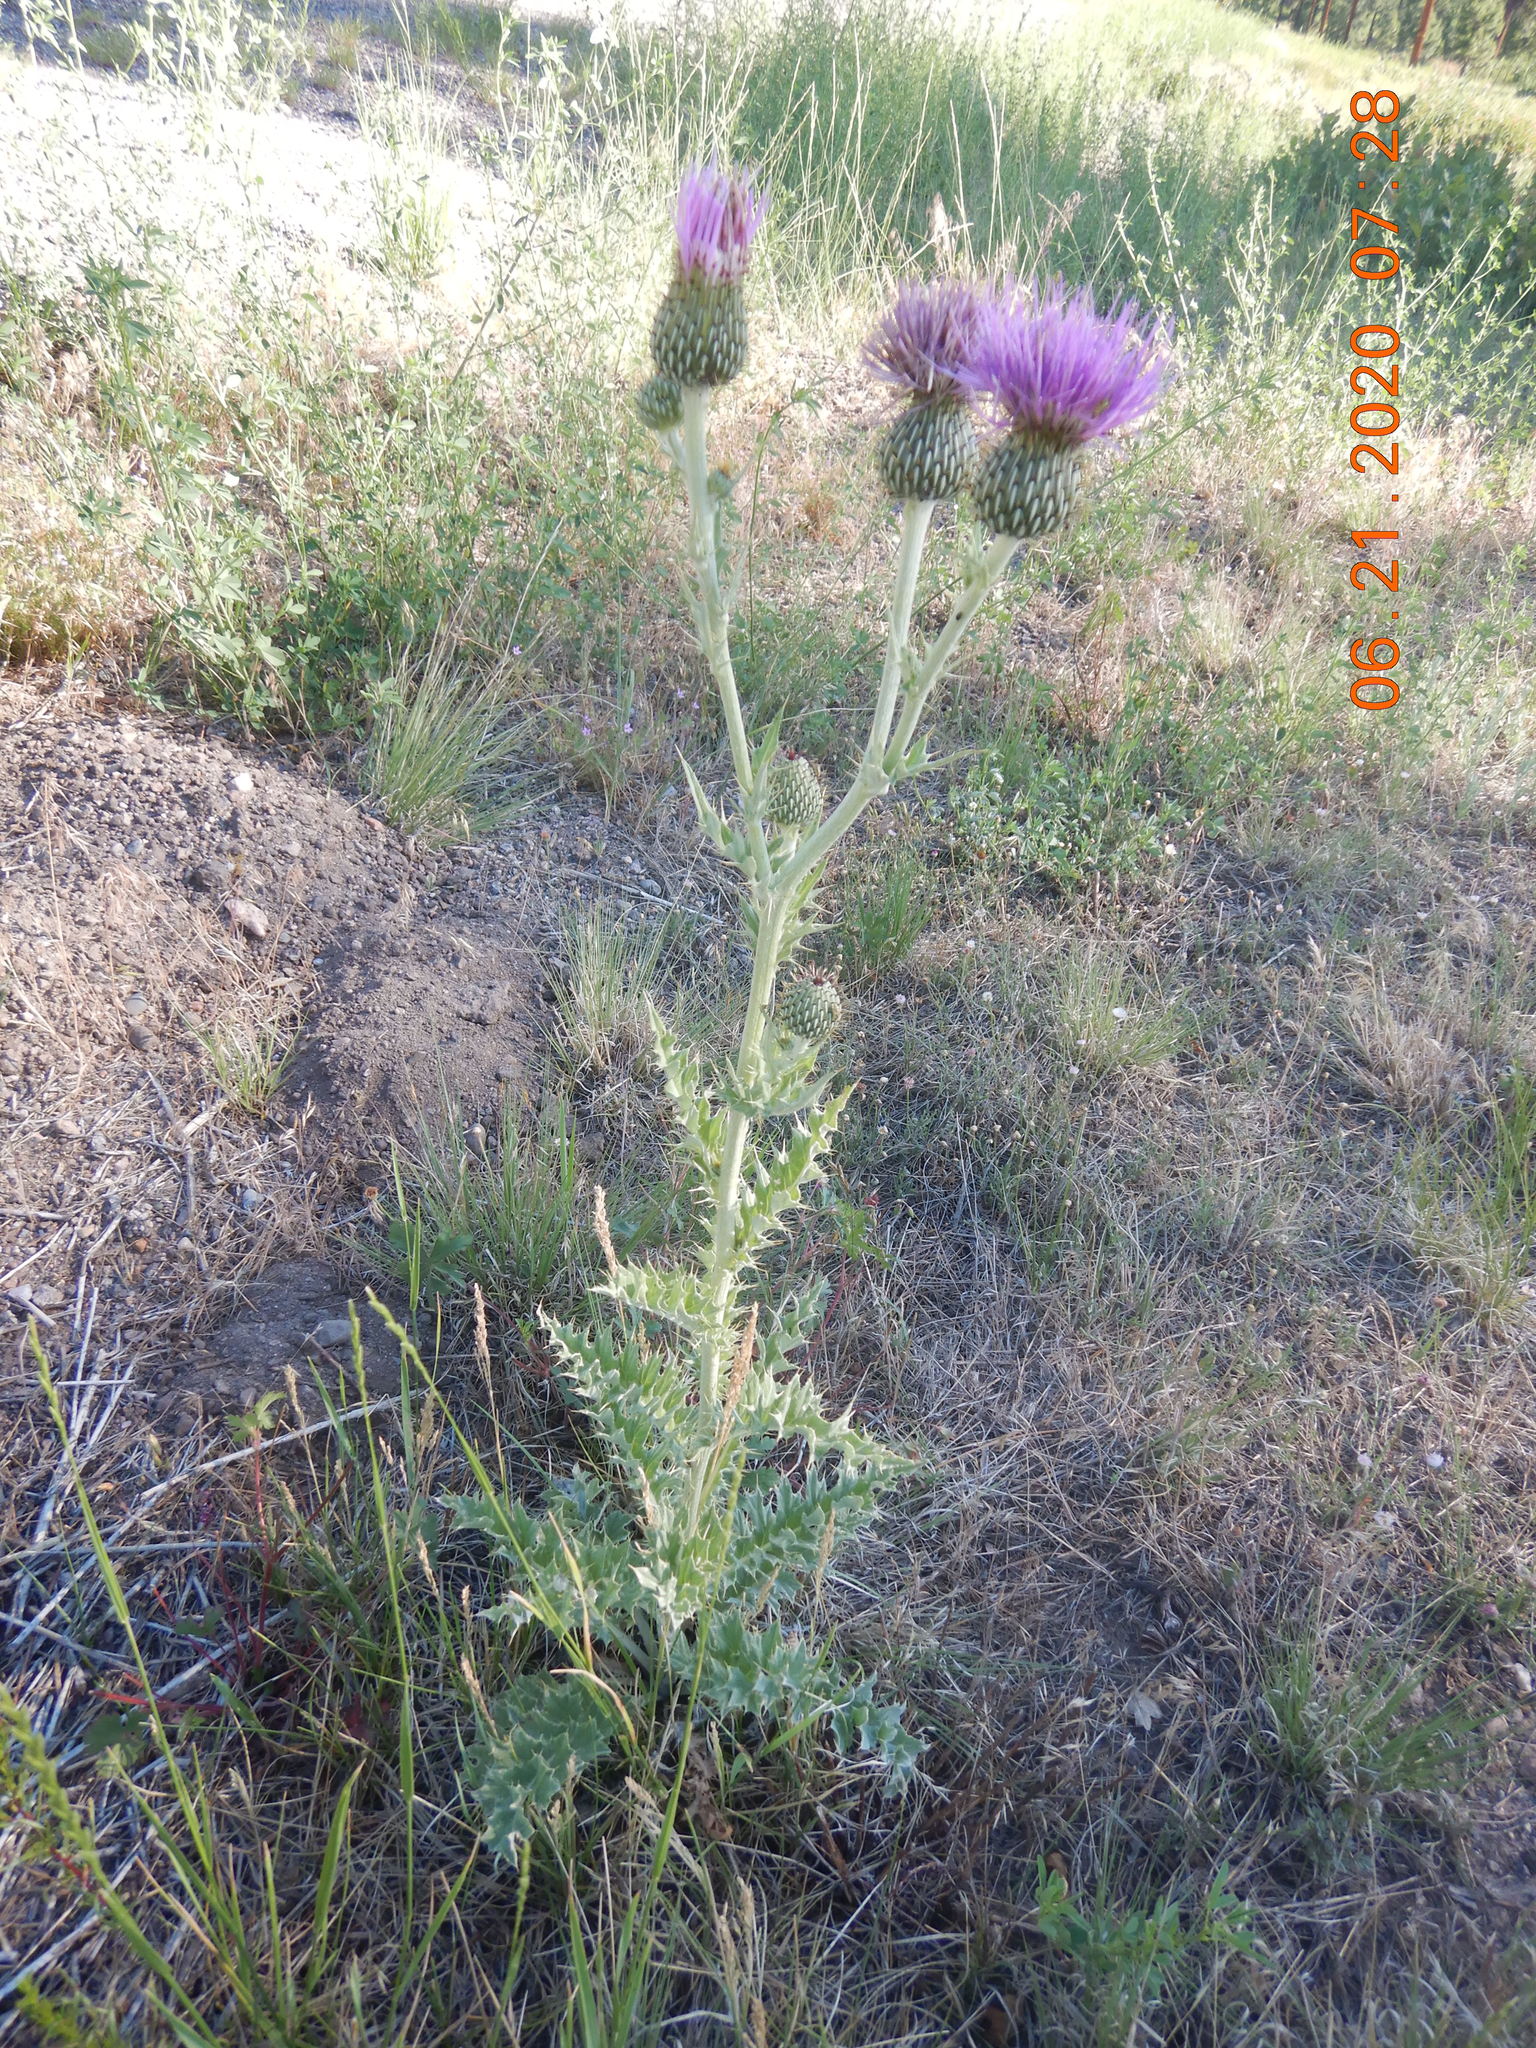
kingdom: Plantae
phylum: Tracheophyta
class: Magnoliopsida
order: Asterales
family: Asteraceae
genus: Cirsium
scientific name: Cirsium undulatum
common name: Pasture thistle
